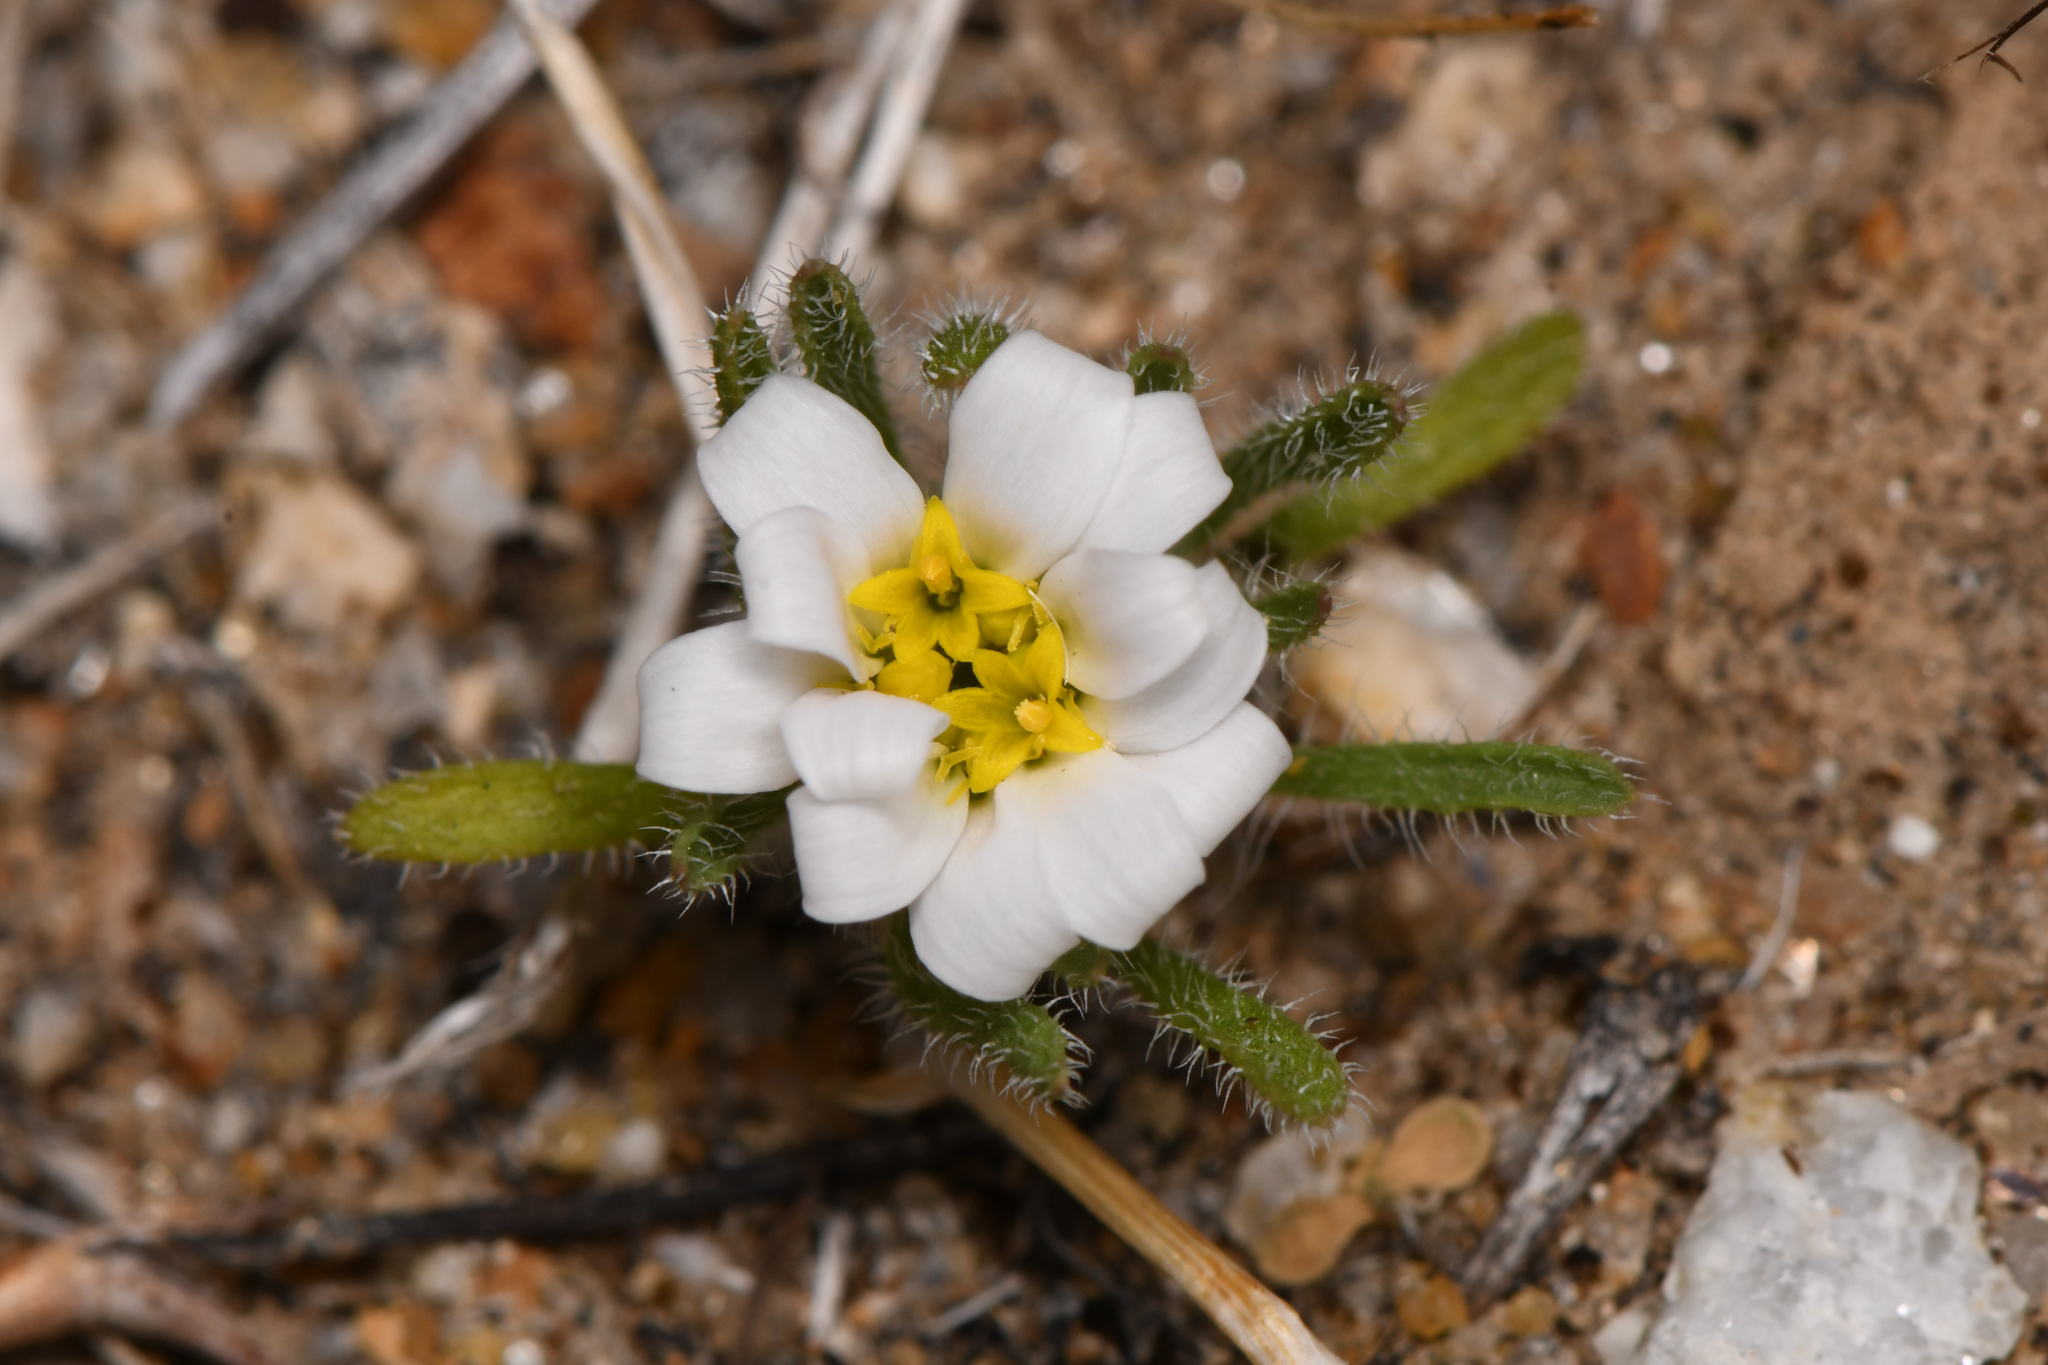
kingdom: Plantae
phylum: Tracheophyta
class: Magnoliopsida
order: Asterales
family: Asteraceae
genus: Monoptilon
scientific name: Monoptilon bellioides
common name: Bristly desertstar
